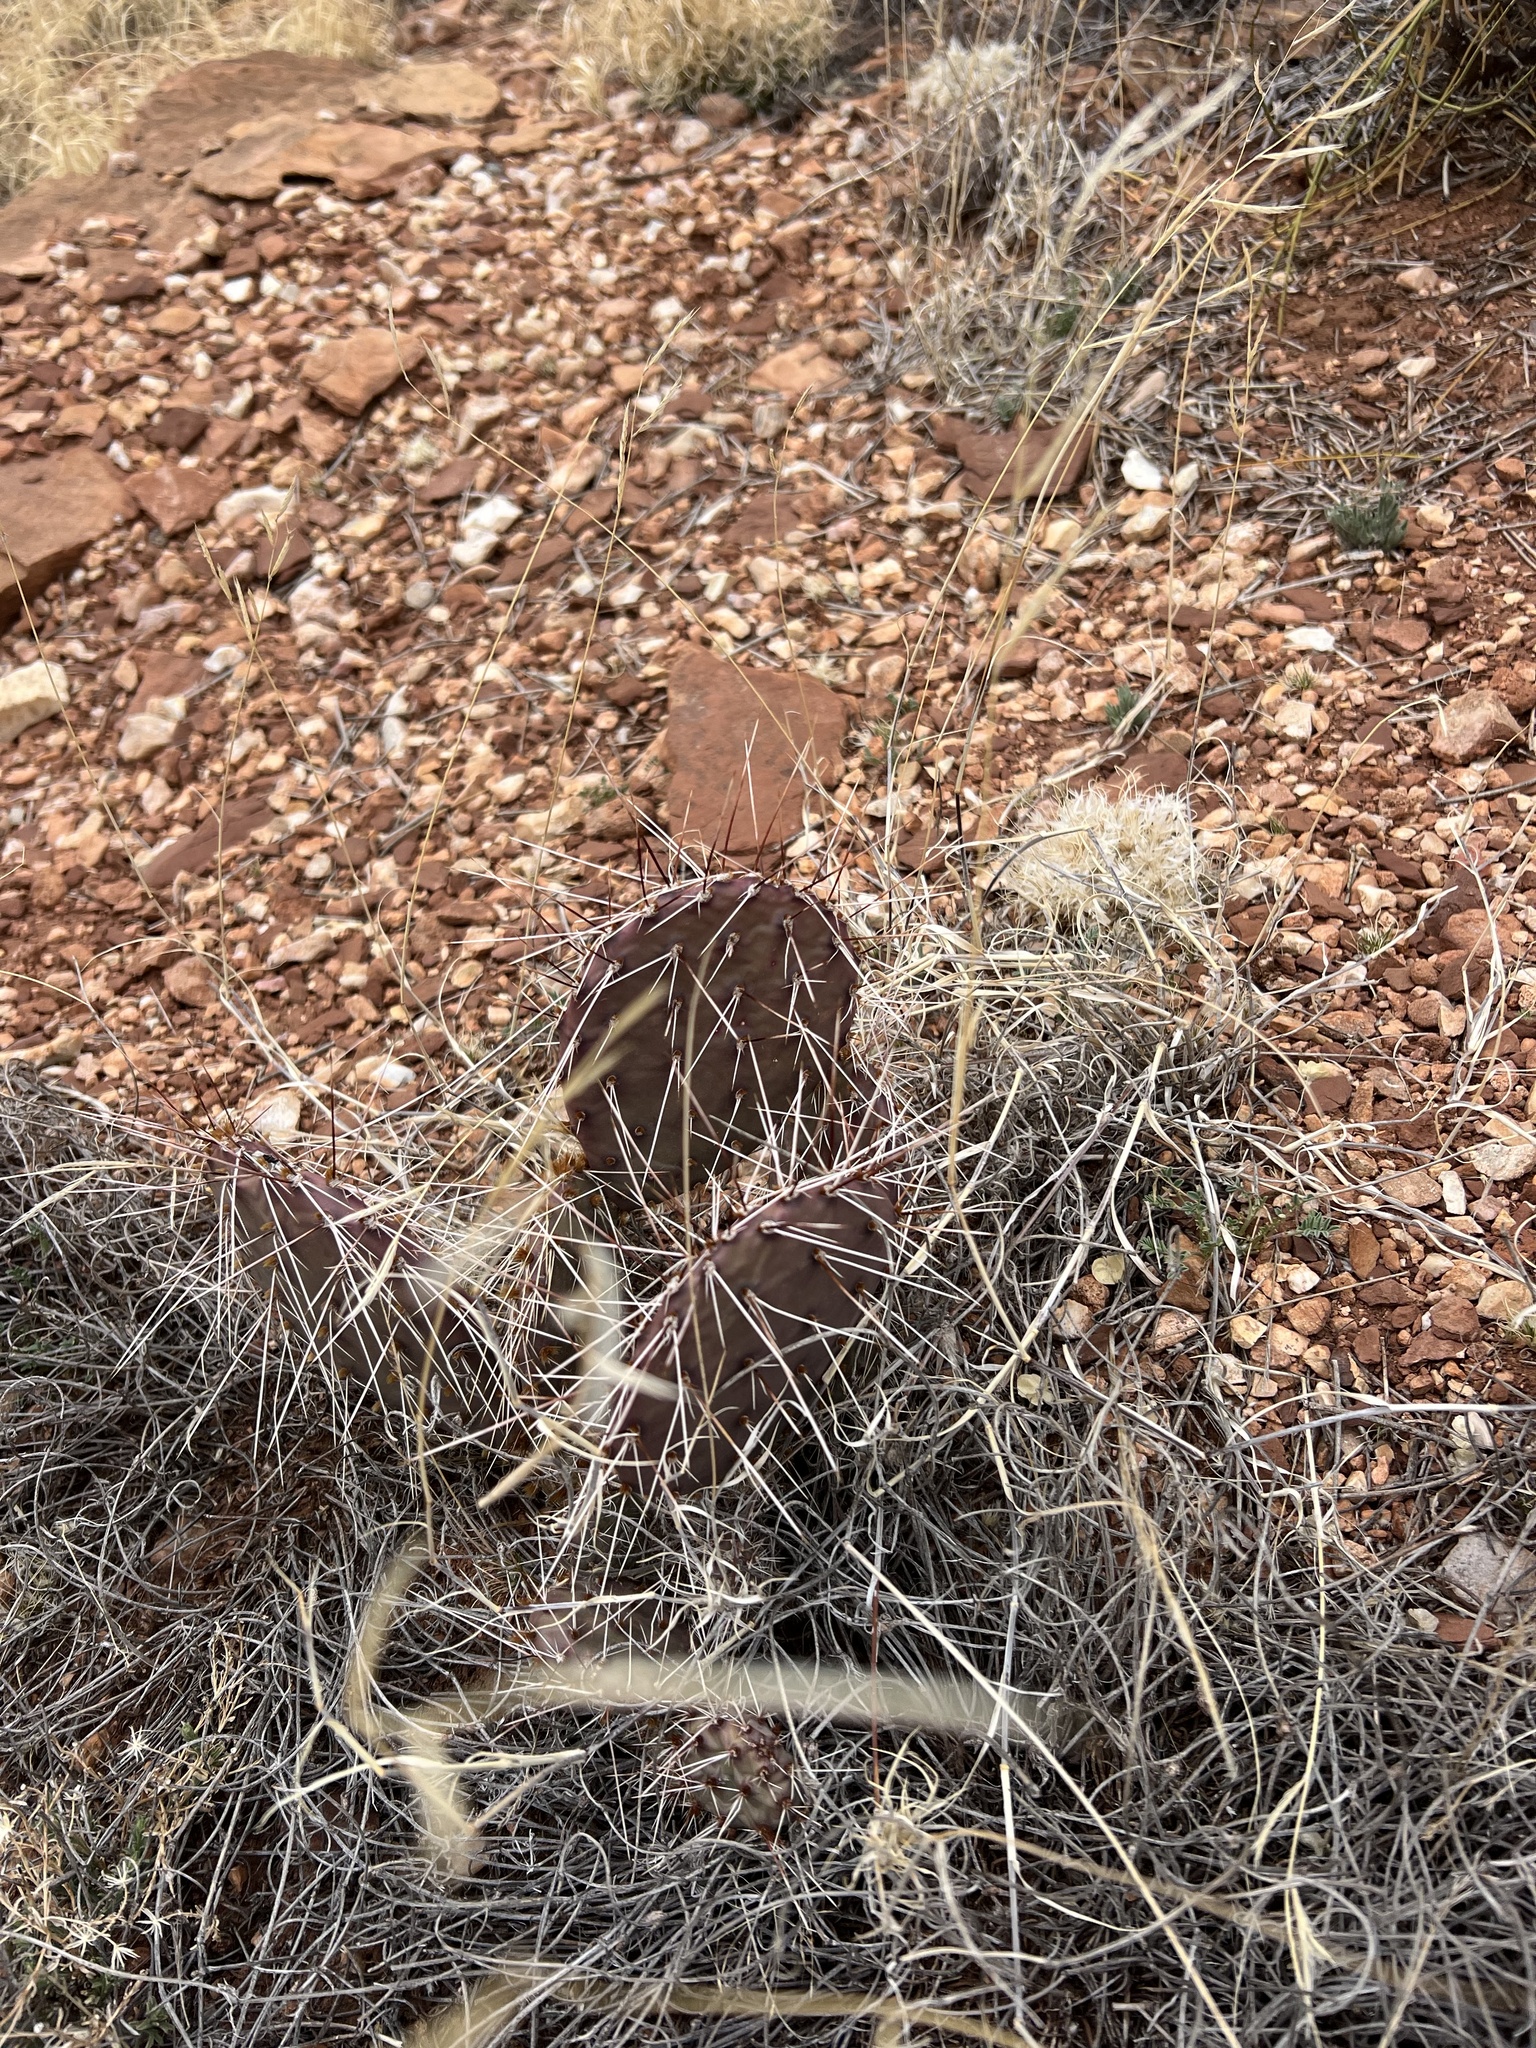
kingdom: Plantae
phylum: Tracheophyta
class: Magnoliopsida
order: Caryophyllales
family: Cactaceae
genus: Opuntia
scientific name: Opuntia phaeacantha
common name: New mexico prickly-pear
